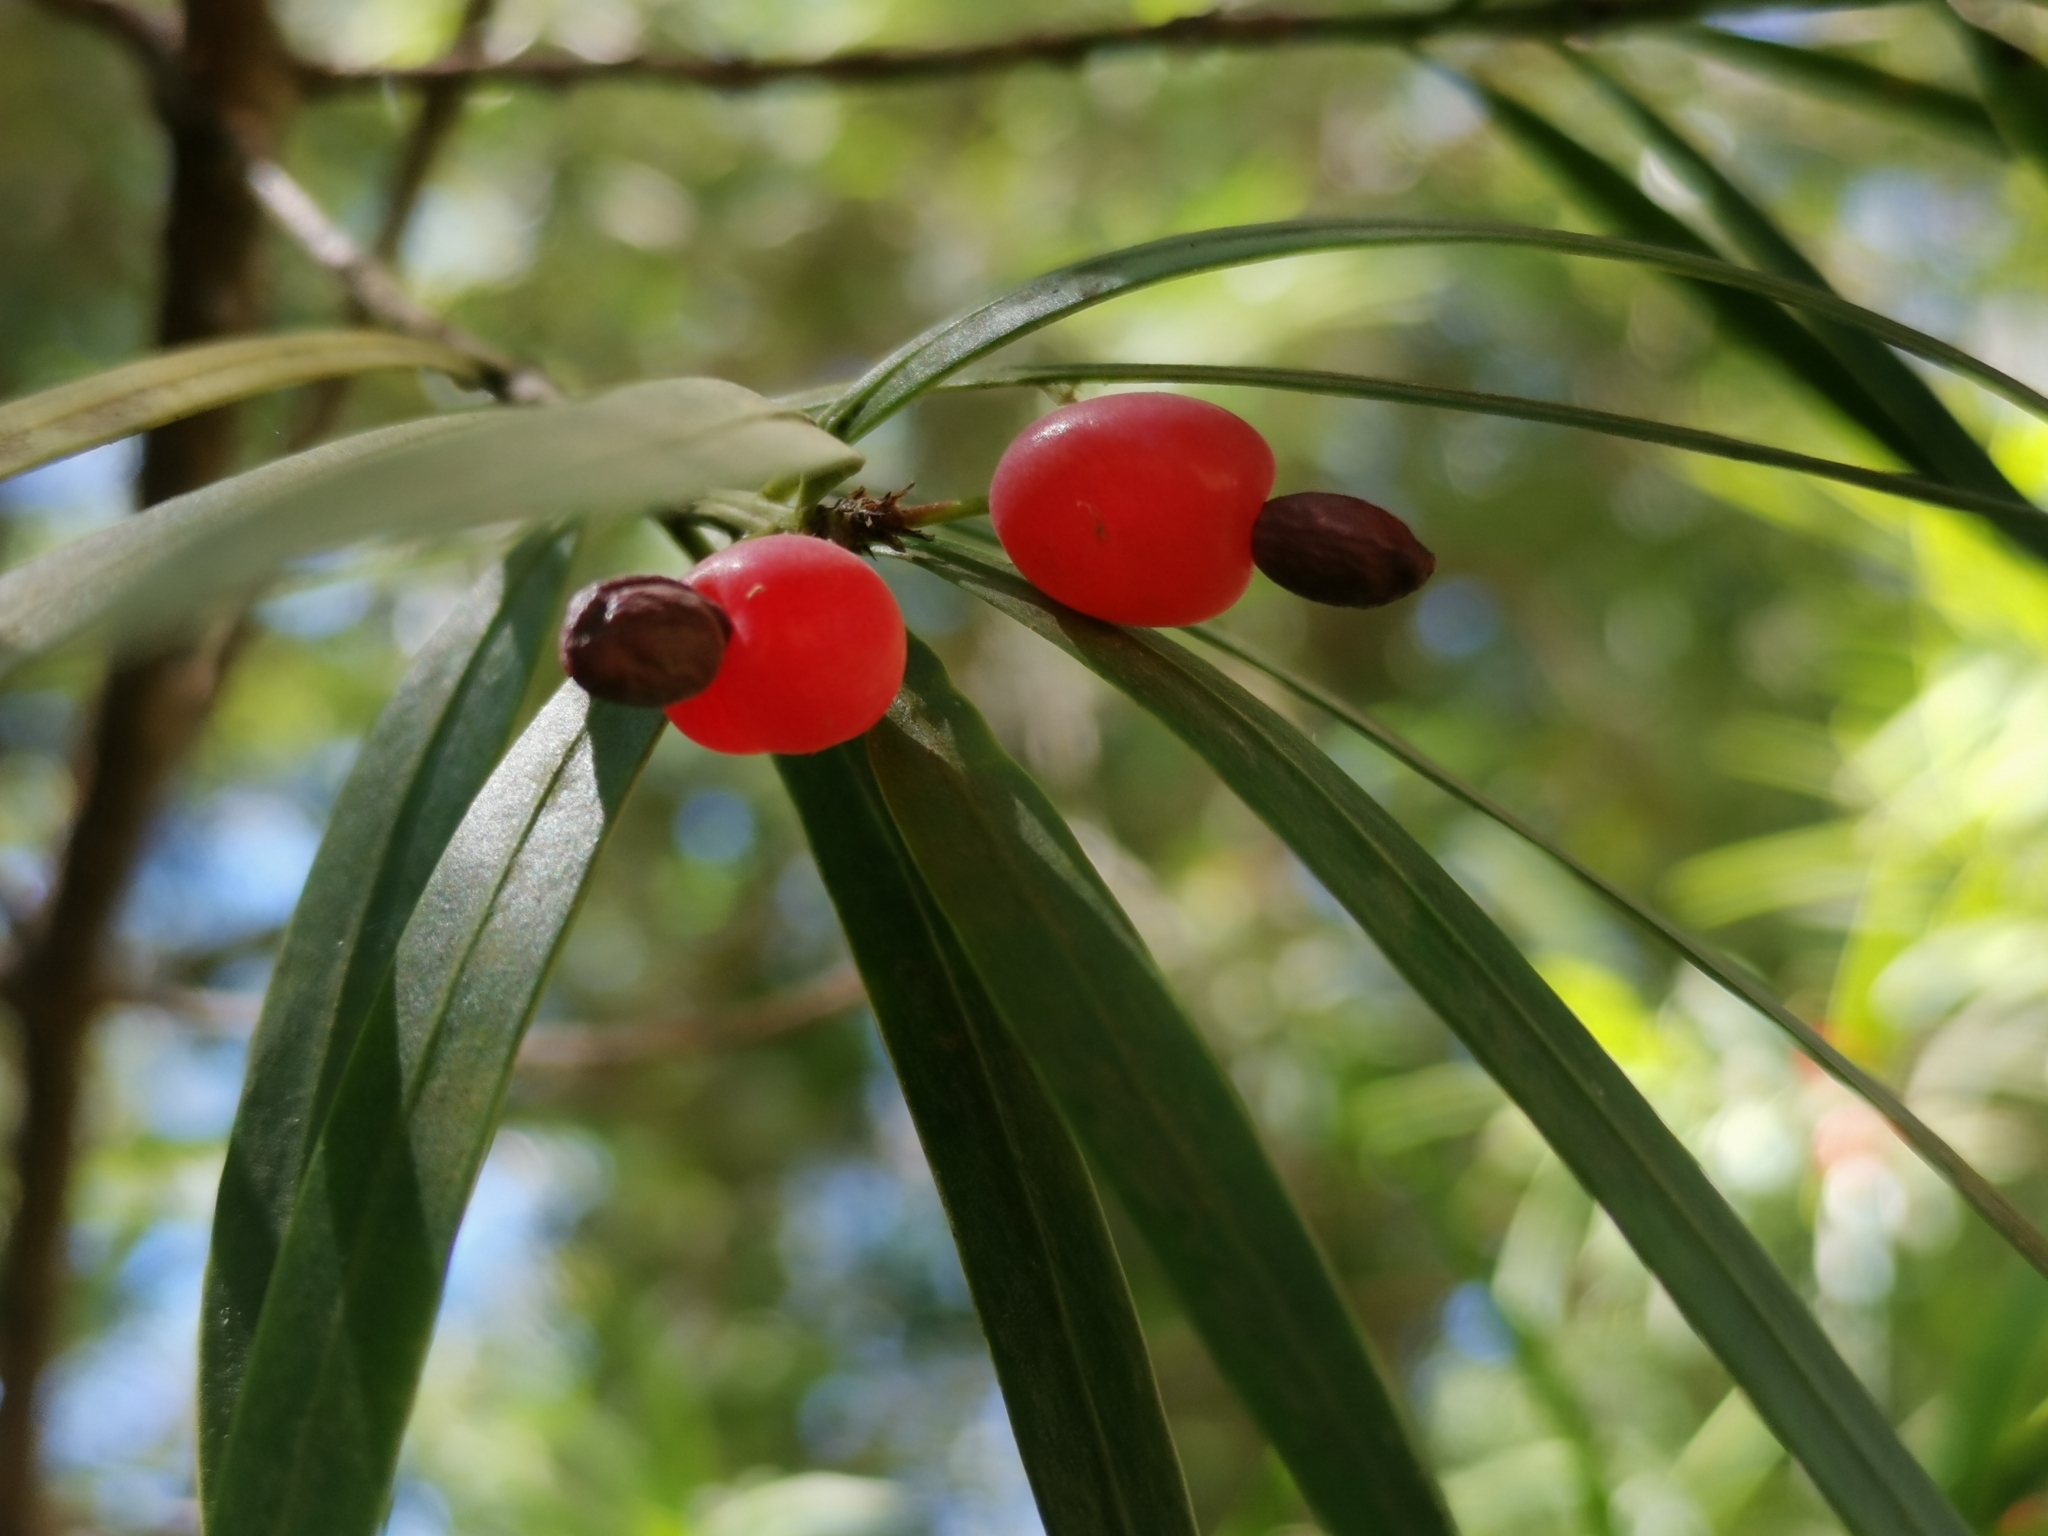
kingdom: Plantae
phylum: Tracheophyta
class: Pinopsida
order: Pinales
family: Podocarpaceae
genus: Podocarpus
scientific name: Podocarpus salignus
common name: Willow-leaf podocarp
